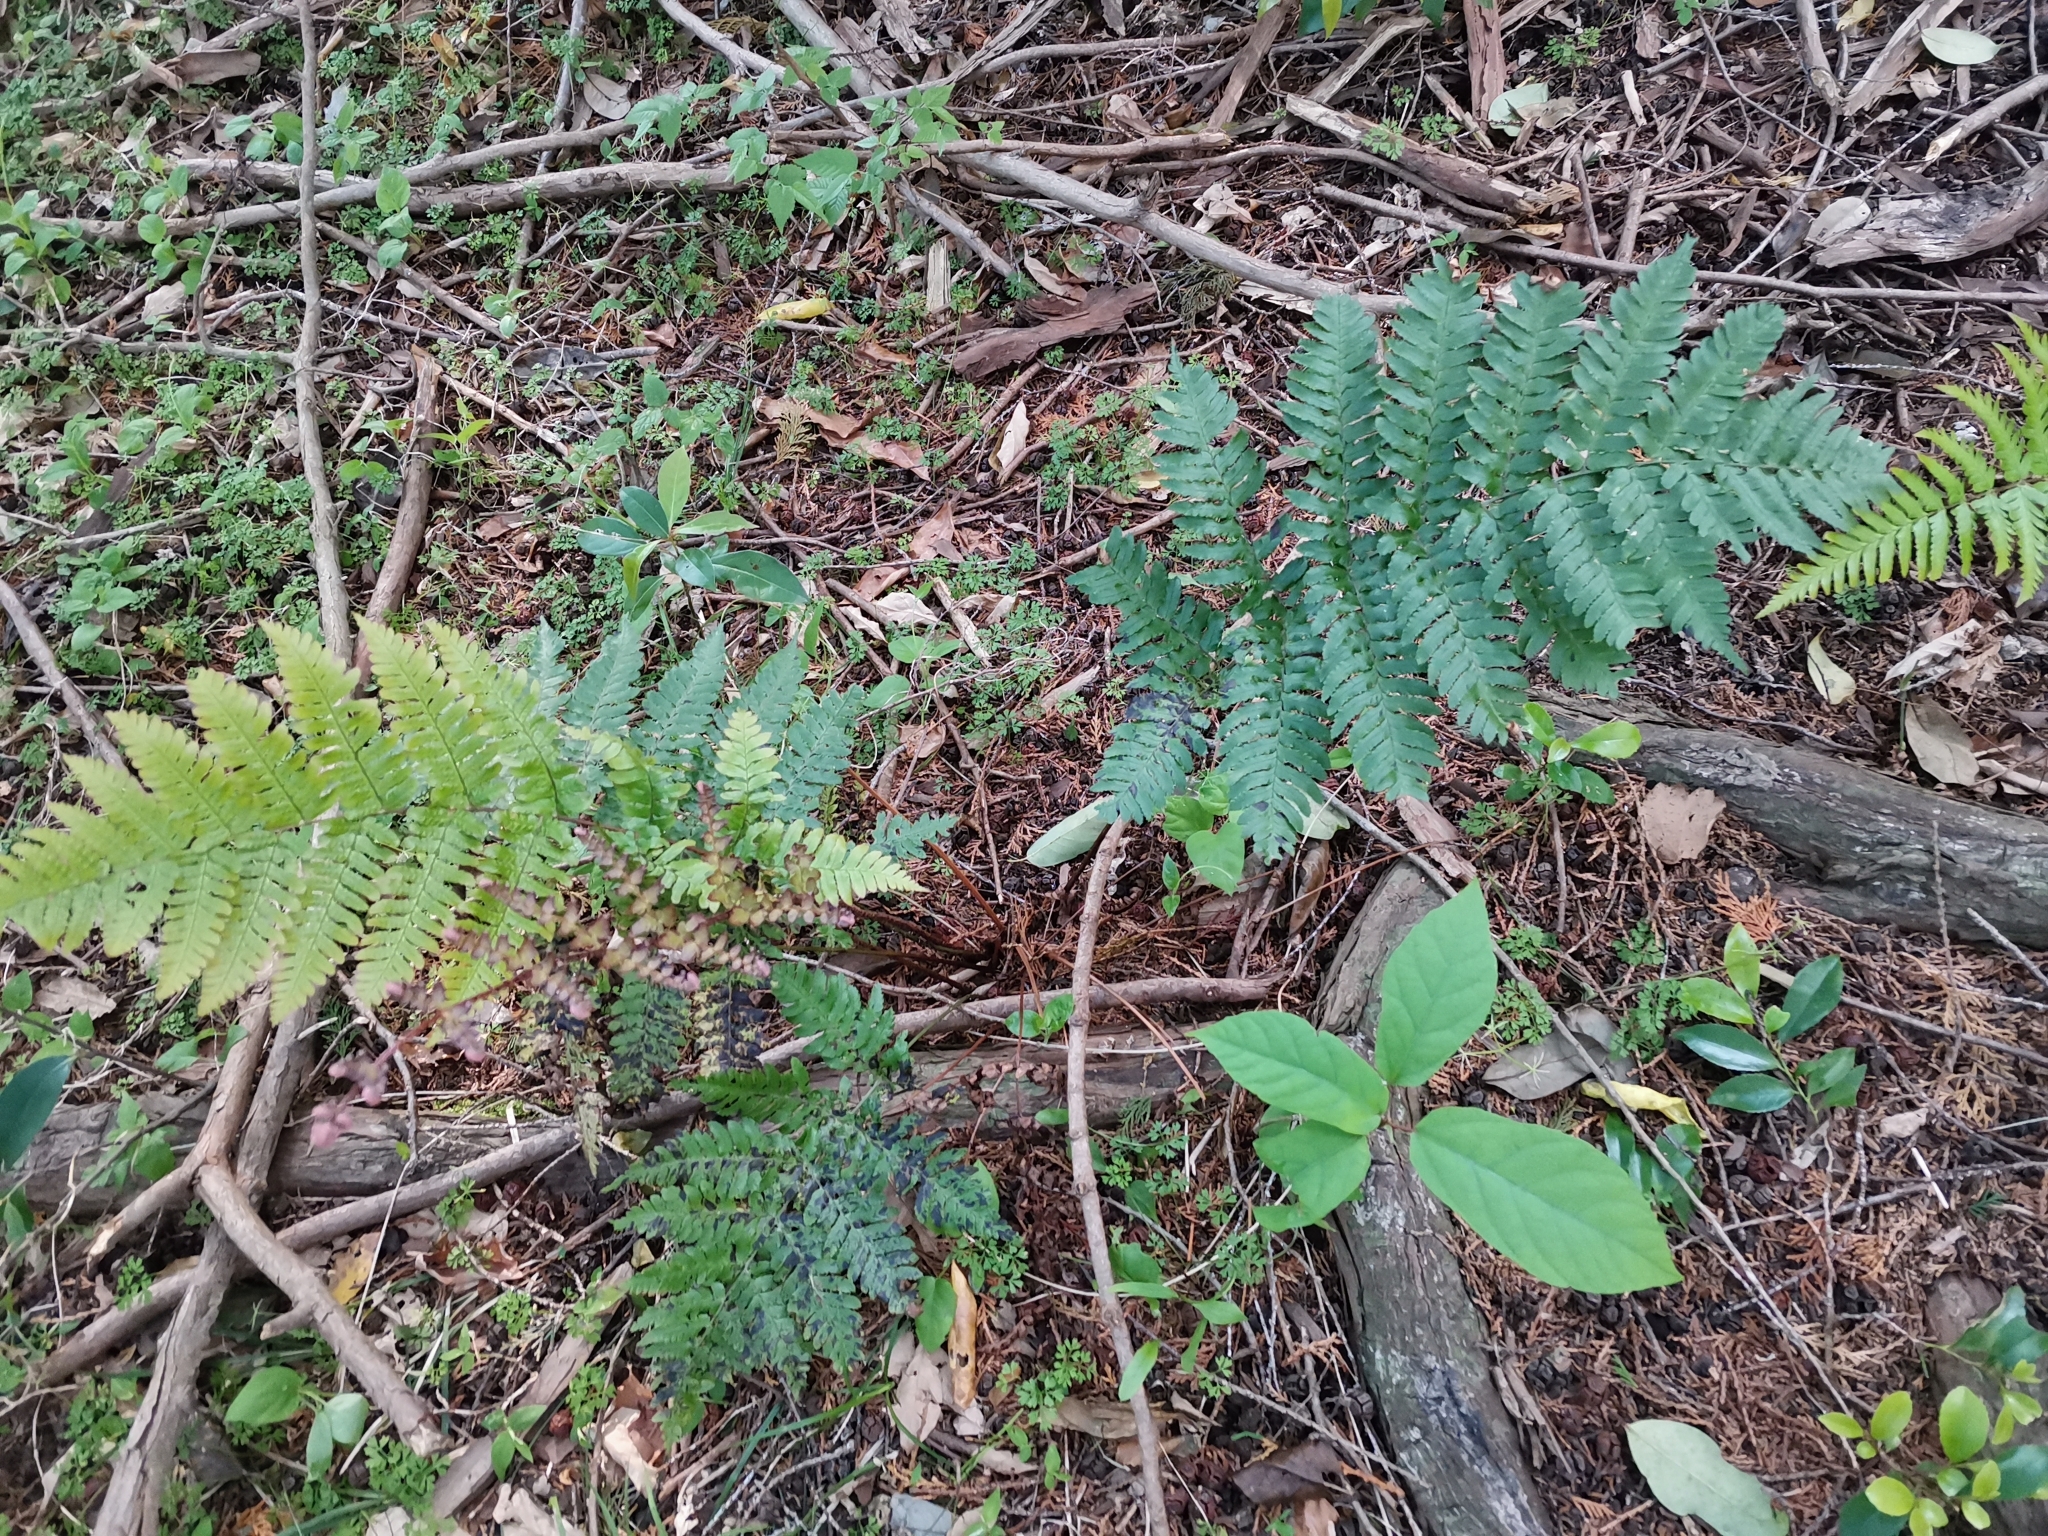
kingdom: Plantae
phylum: Tracheophyta
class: Polypodiopsida
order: Polypodiales
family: Dryopteridaceae
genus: Dryopteris
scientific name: Dryopteris erythrosora
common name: Autumn fern
